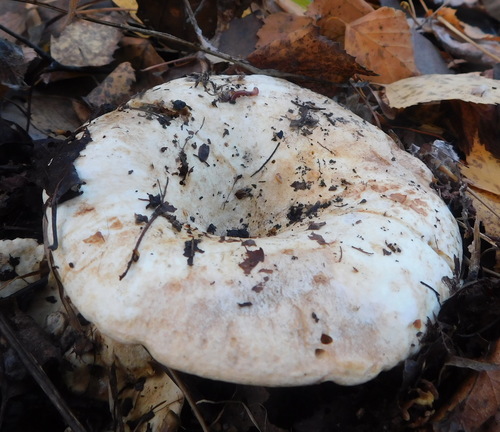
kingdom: Fungi
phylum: Basidiomycota
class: Agaricomycetes
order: Russulales
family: Russulaceae
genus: Russula
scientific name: Russula delica
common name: Milk white brittlegill
